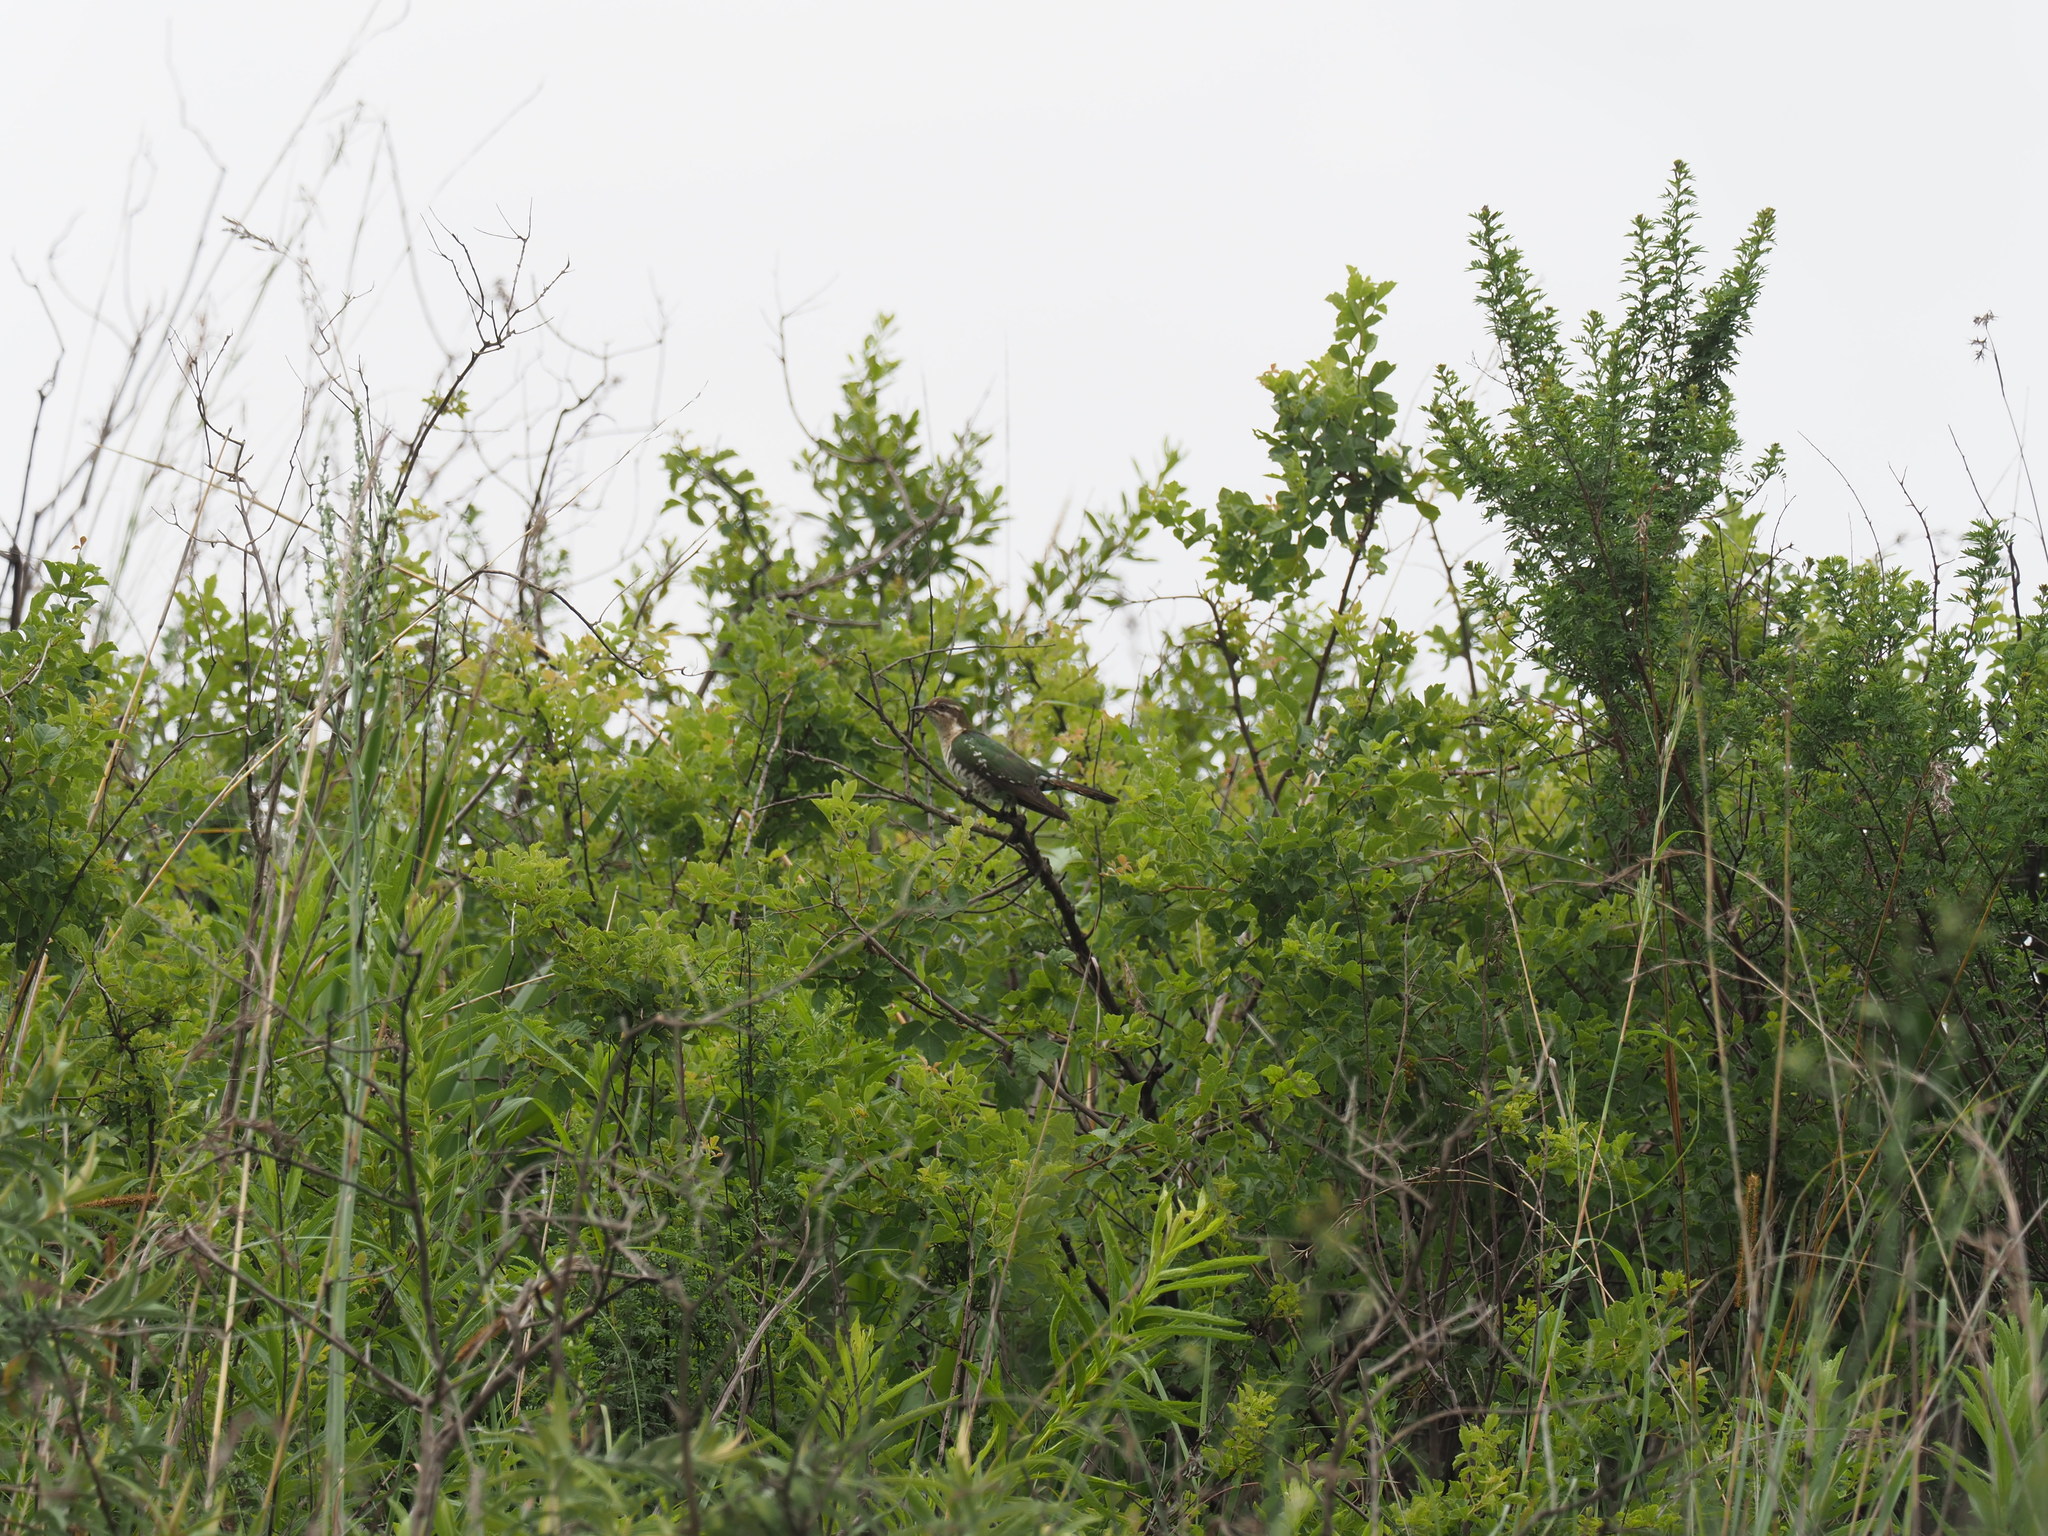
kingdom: Animalia
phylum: Chordata
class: Aves
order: Cuculiformes
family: Cuculidae
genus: Chrysococcyx
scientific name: Chrysococcyx caprius
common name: Diederik cuckoo
